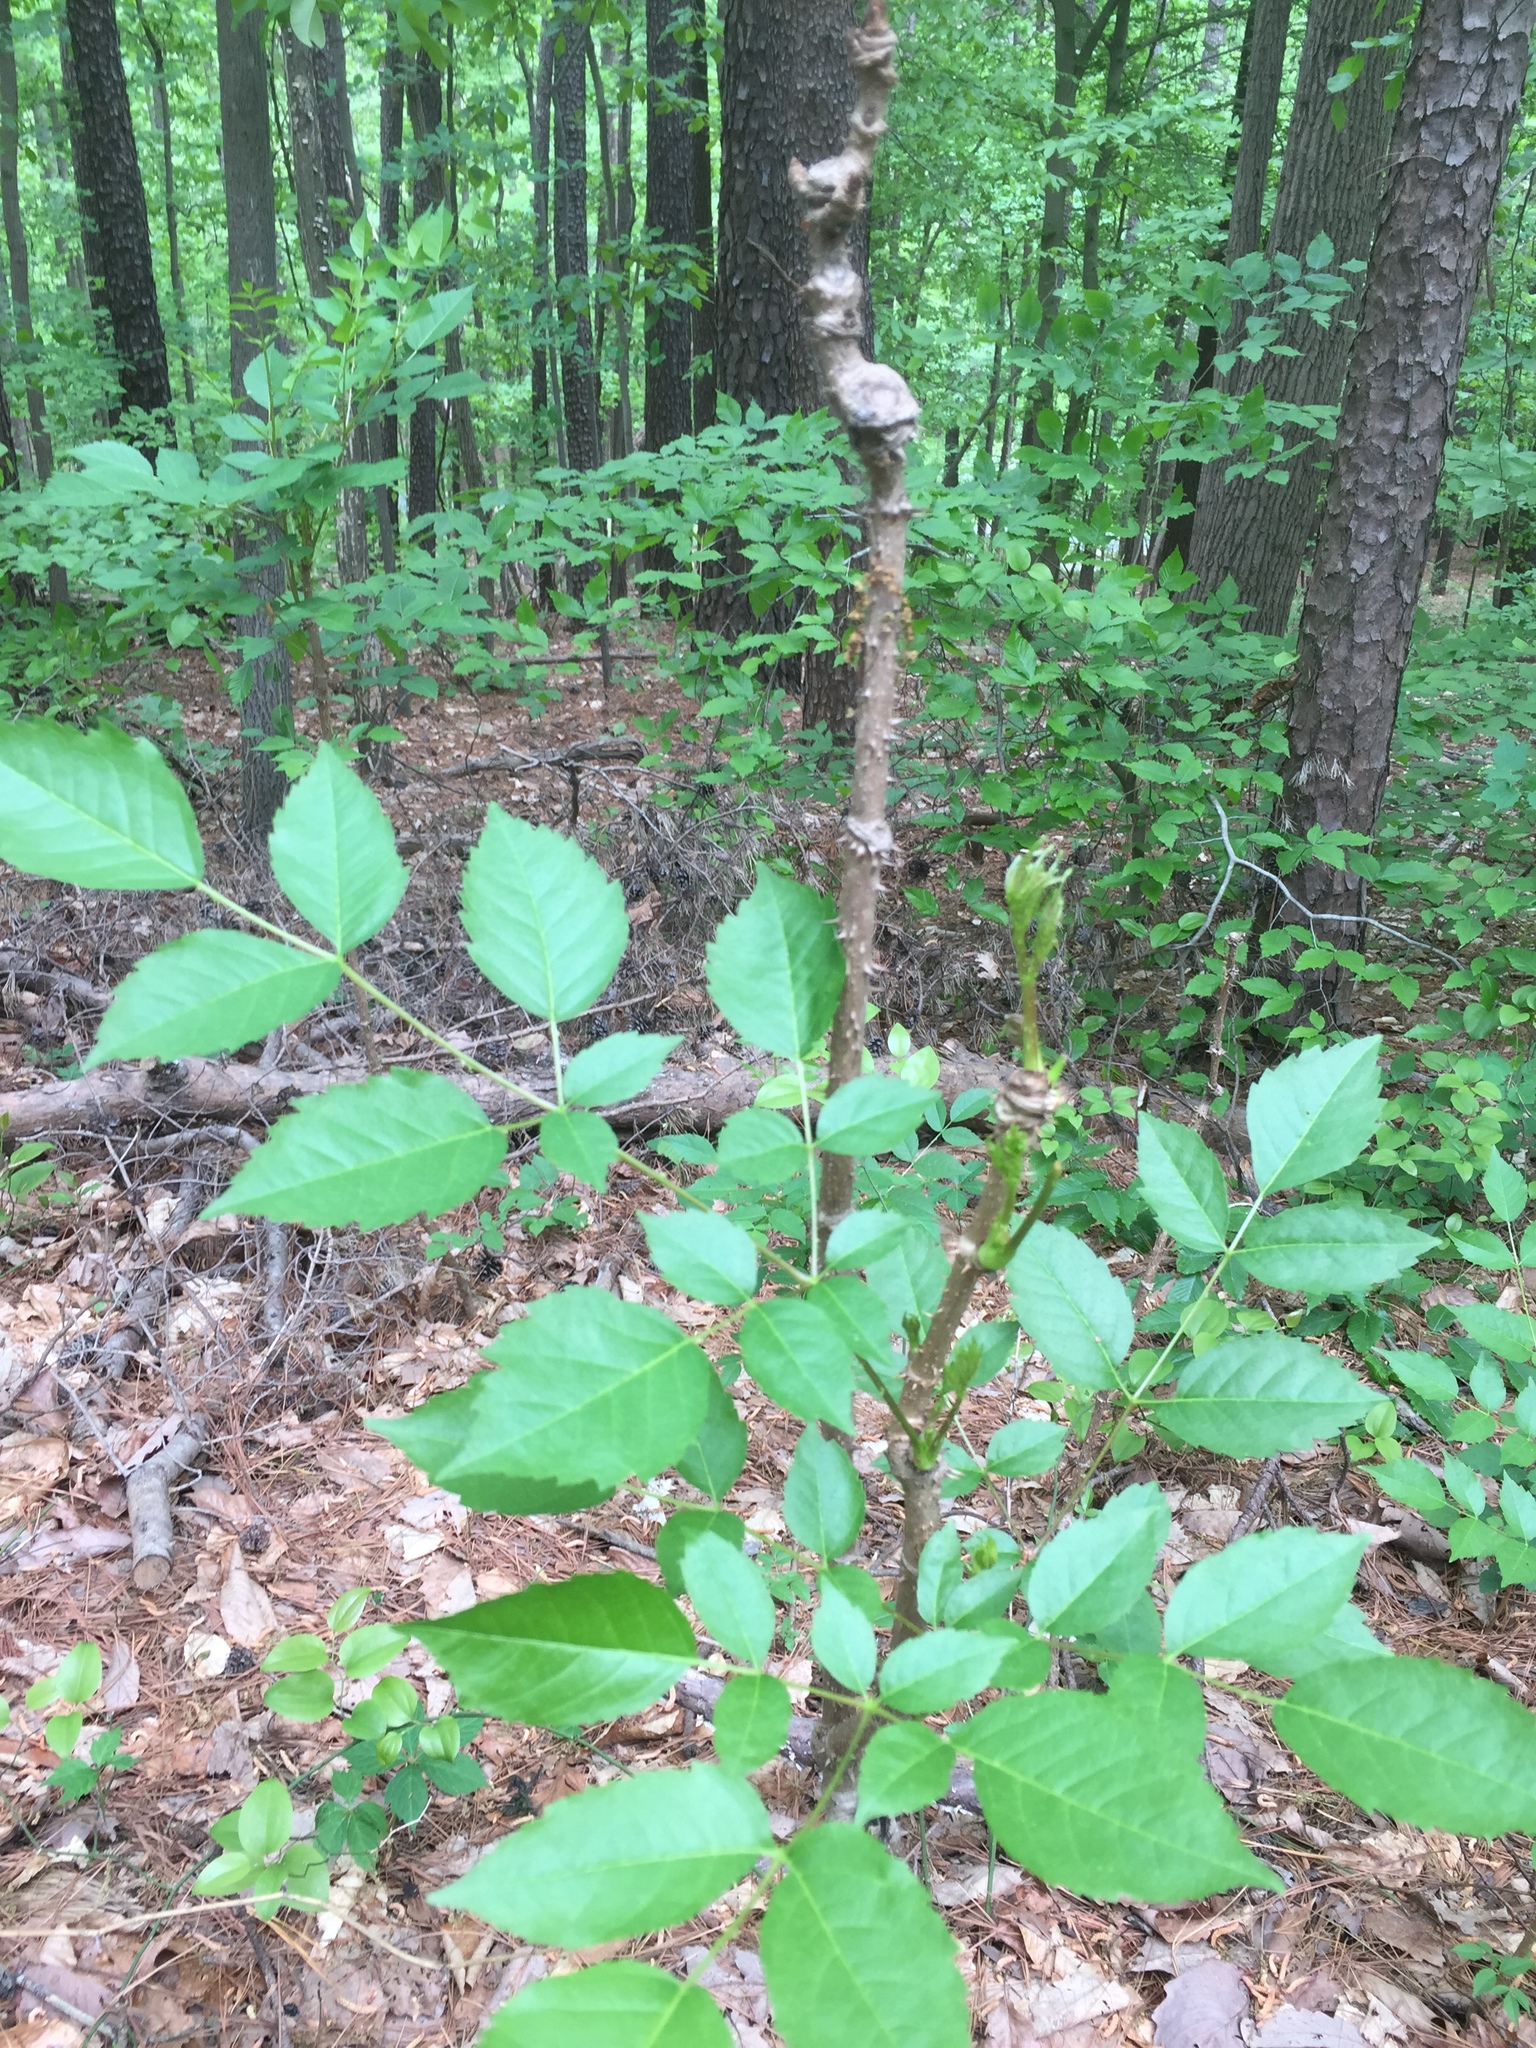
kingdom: Plantae
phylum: Tracheophyta
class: Magnoliopsida
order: Apiales
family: Araliaceae
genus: Aralia
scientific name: Aralia spinosa
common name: Hercules'-club
